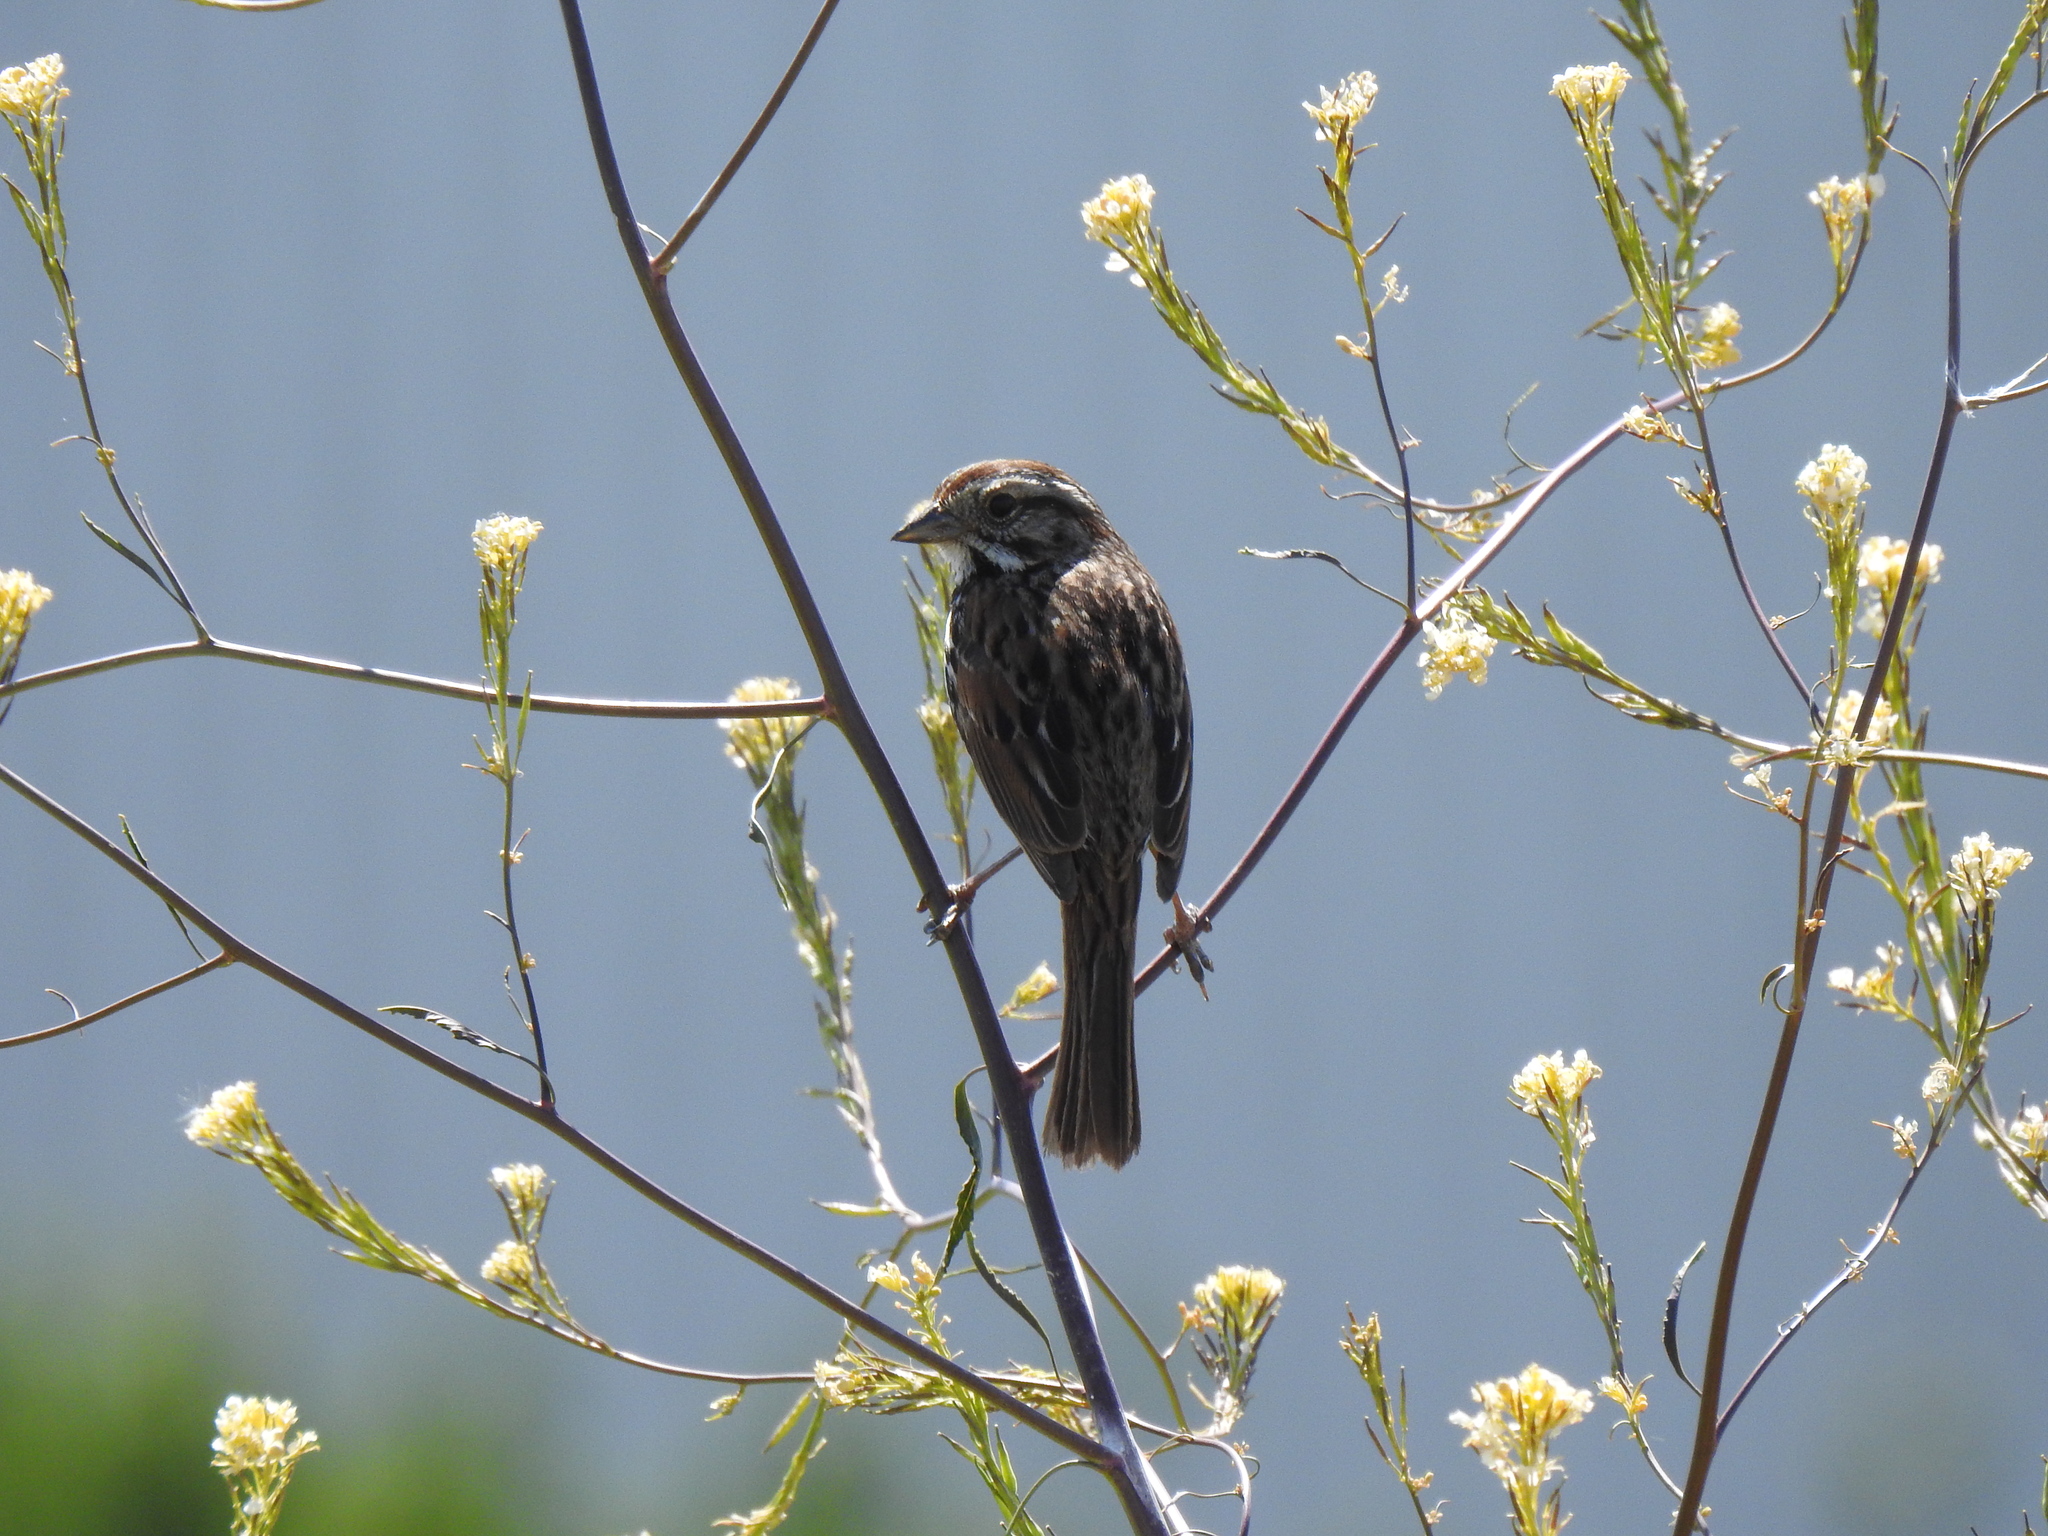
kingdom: Animalia
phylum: Chordata
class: Aves
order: Passeriformes
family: Passerellidae
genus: Melospiza
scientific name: Melospiza melodia
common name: Song sparrow
